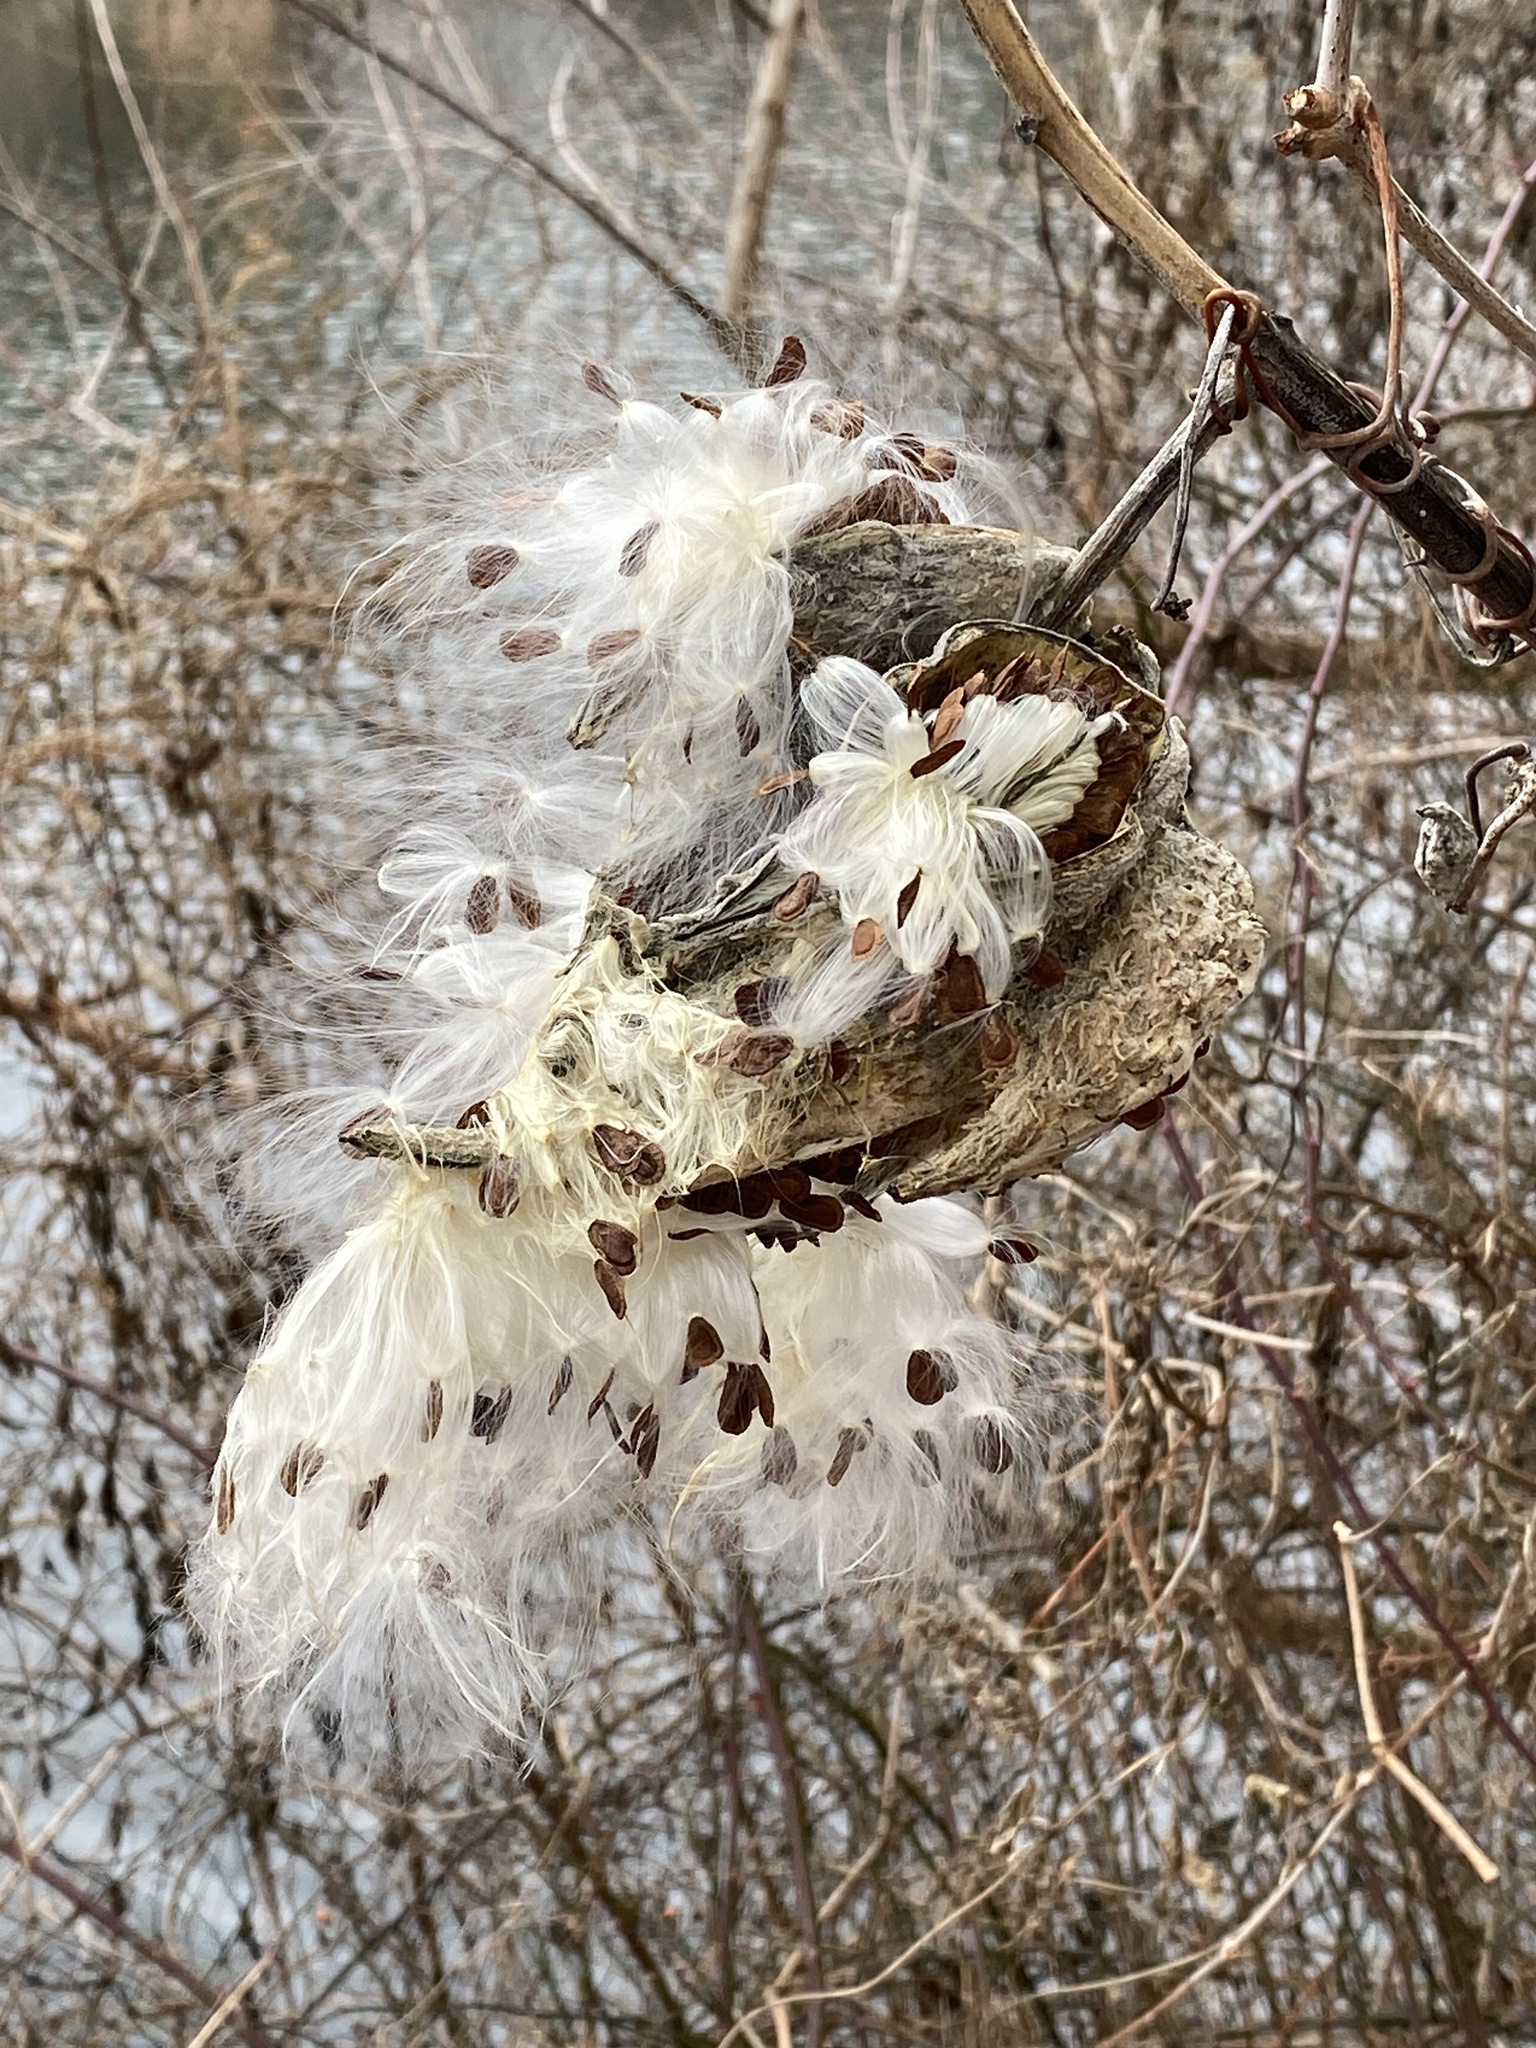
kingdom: Plantae
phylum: Tracheophyta
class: Magnoliopsida
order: Gentianales
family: Apocynaceae
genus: Asclepias
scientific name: Asclepias syriaca
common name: Common milkweed
